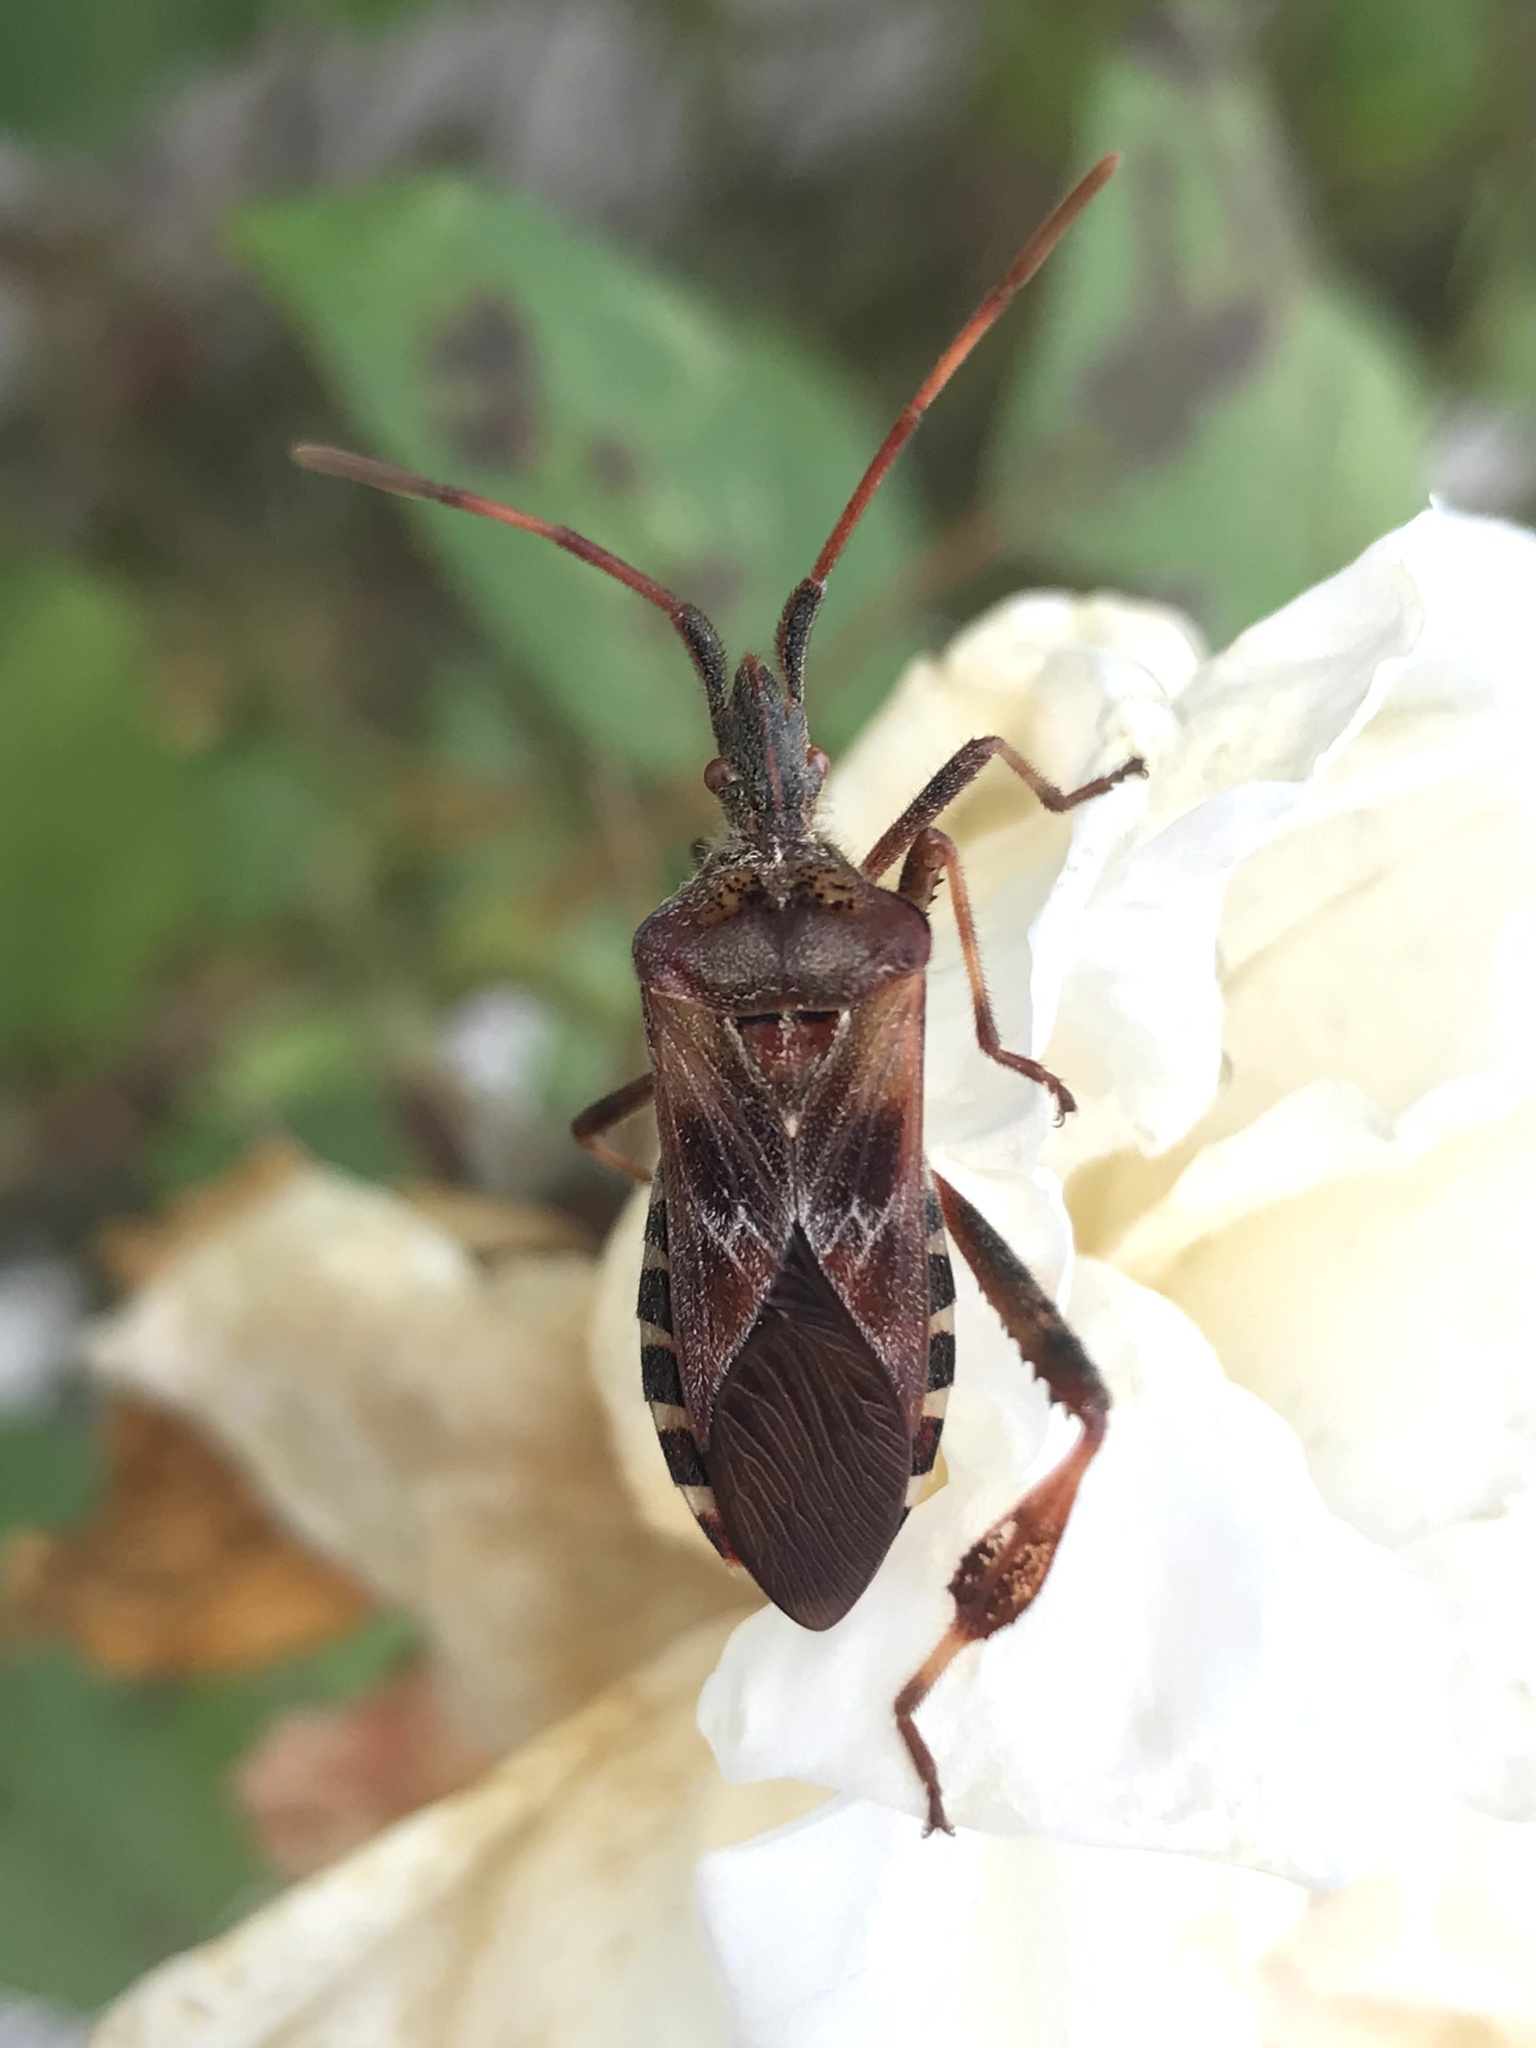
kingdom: Animalia
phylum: Arthropoda
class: Insecta
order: Hemiptera
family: Coreidae
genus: Leptoglossus
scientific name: Leptoglossus occidentalis
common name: Western conifer-seed bug
